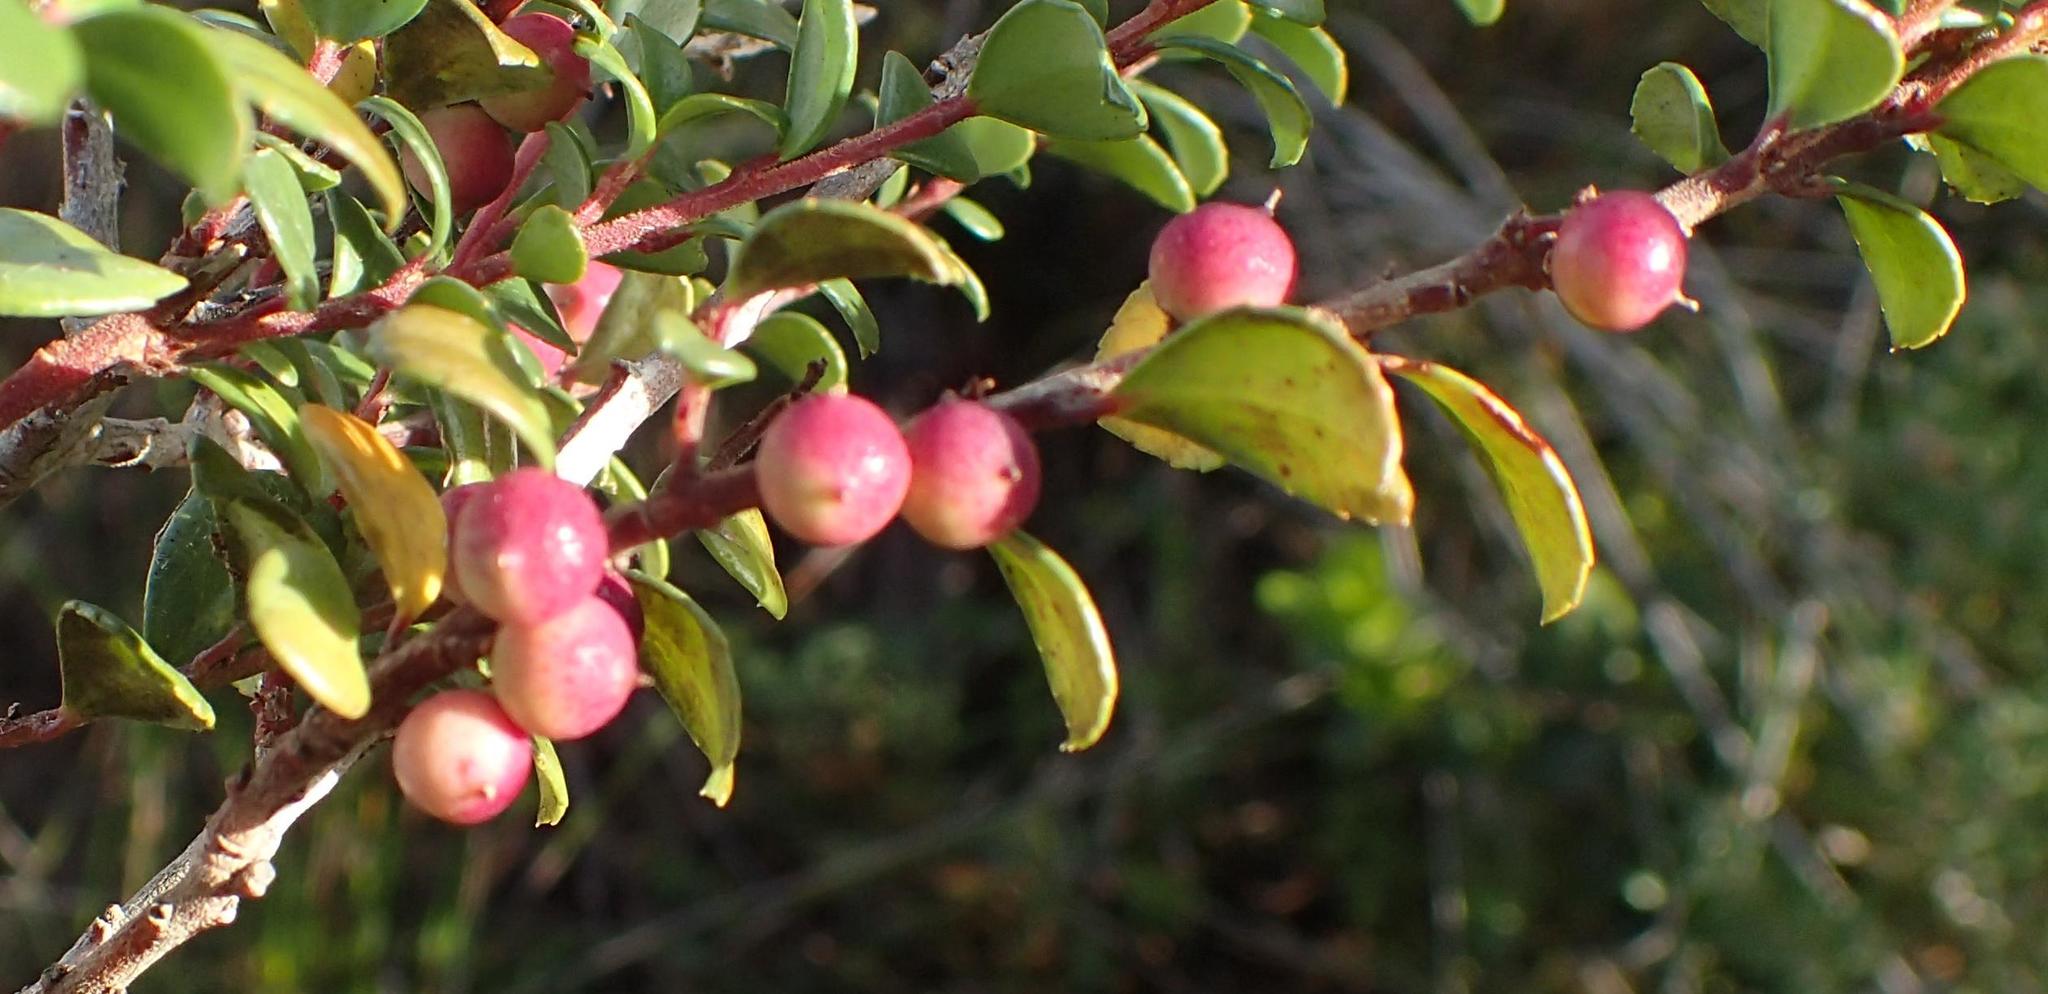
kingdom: Plantae
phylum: Tracheophyta
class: Magnoliopsida
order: Ericales
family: Primulaceae
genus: Myrsine
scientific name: Myrsine africana
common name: African-boxwood
